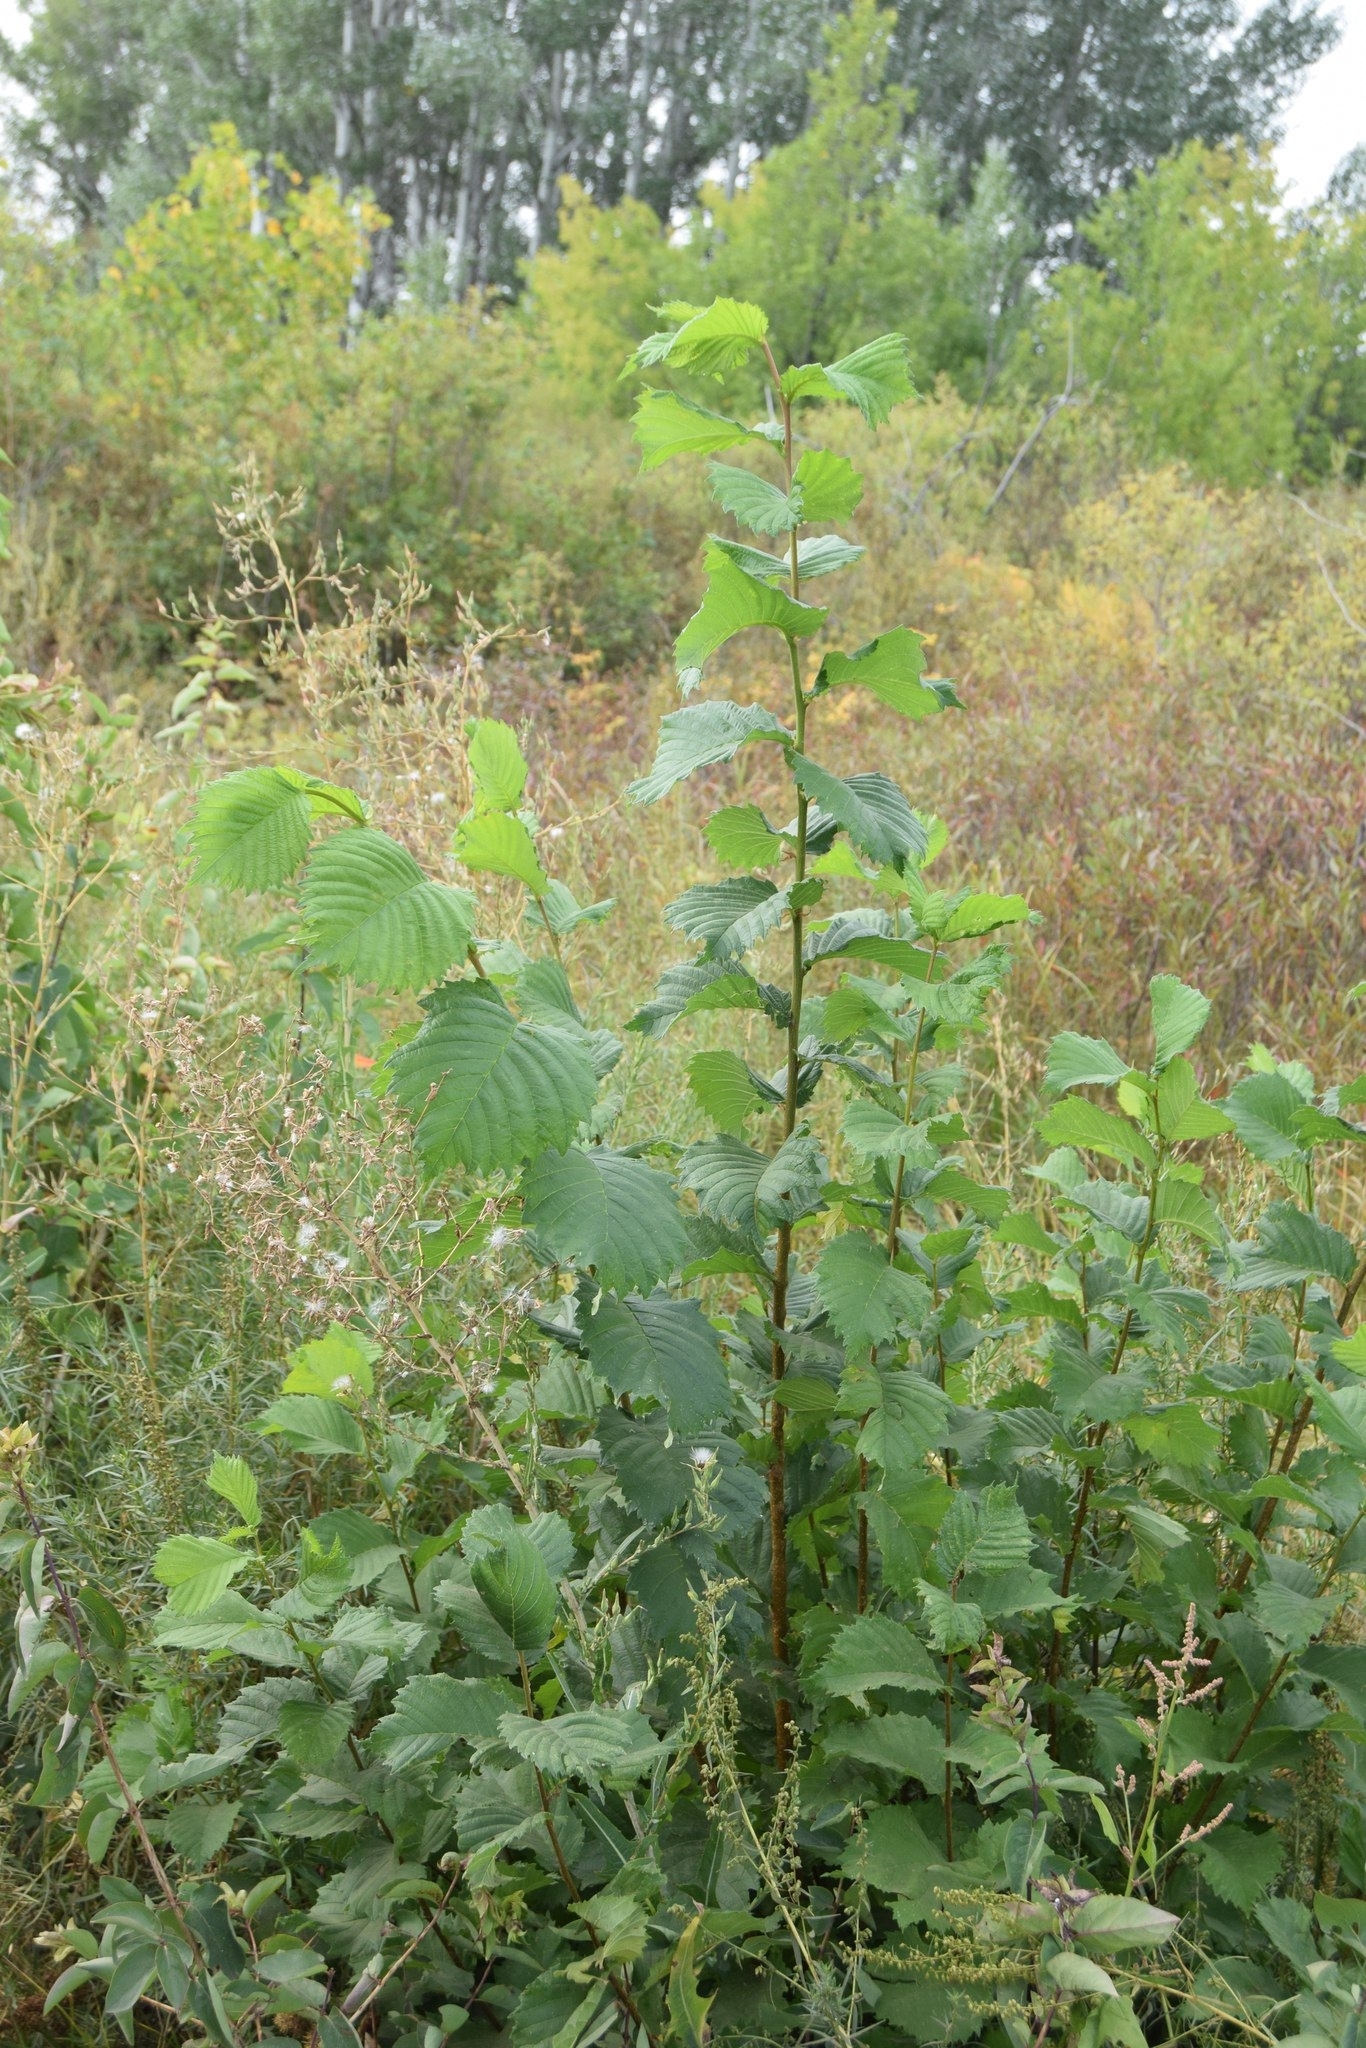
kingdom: Plantae
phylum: Tracheophyta
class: Magnoliopsida
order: Rosales
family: Ulmaceae
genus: Ulmus
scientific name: Ulmus glabra
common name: Wych elm
